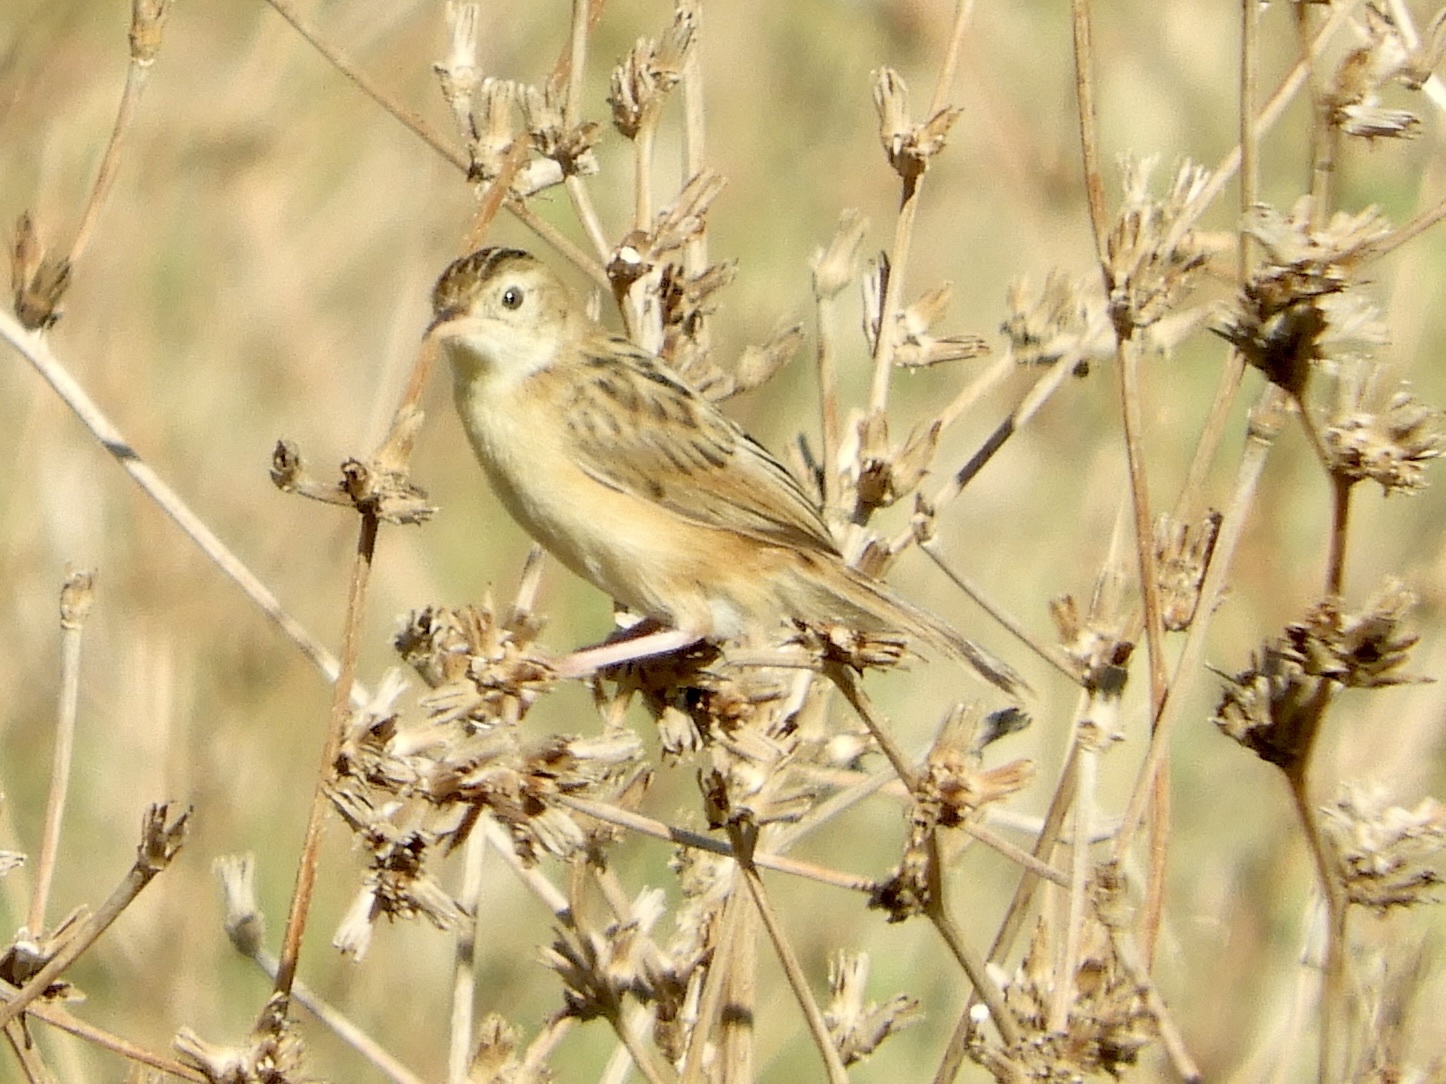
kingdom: Animalia
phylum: Chordata
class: Aves
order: Passeriformes
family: Cisticolidae
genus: Cisticola
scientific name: Cisticola juncidis
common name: Zitting cisticola
